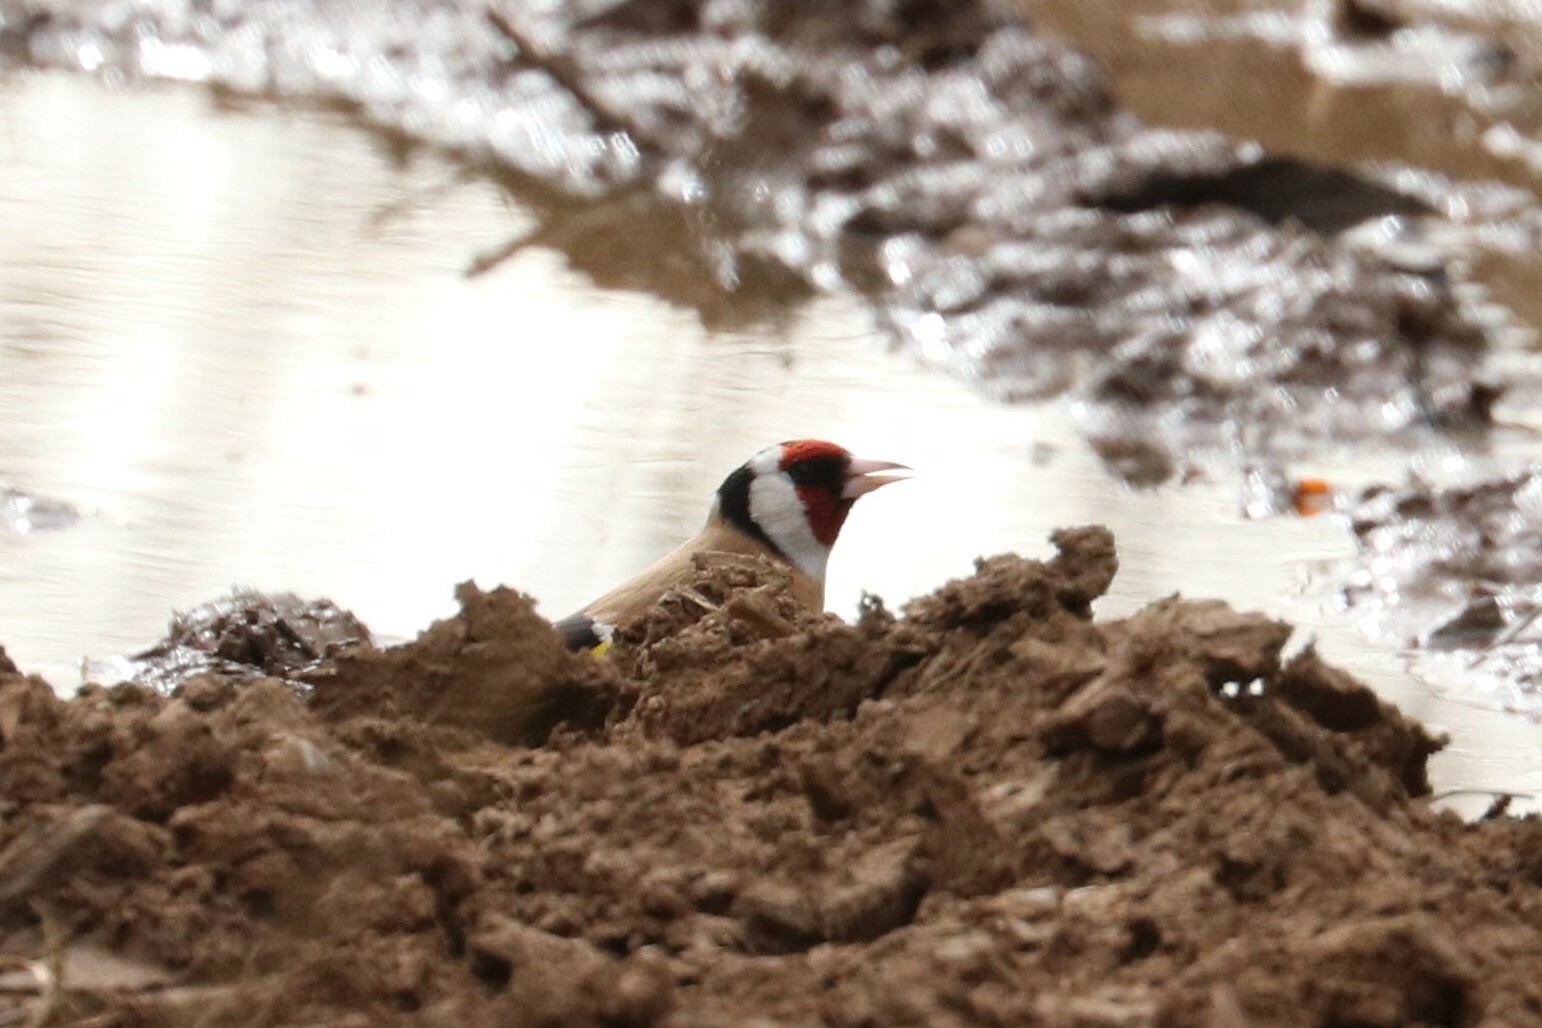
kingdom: Animalia
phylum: Chordata
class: Aves
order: Passeriformes
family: Fringillidae
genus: Carduelis
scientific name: Carduelis carduelis
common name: European goldfinch
